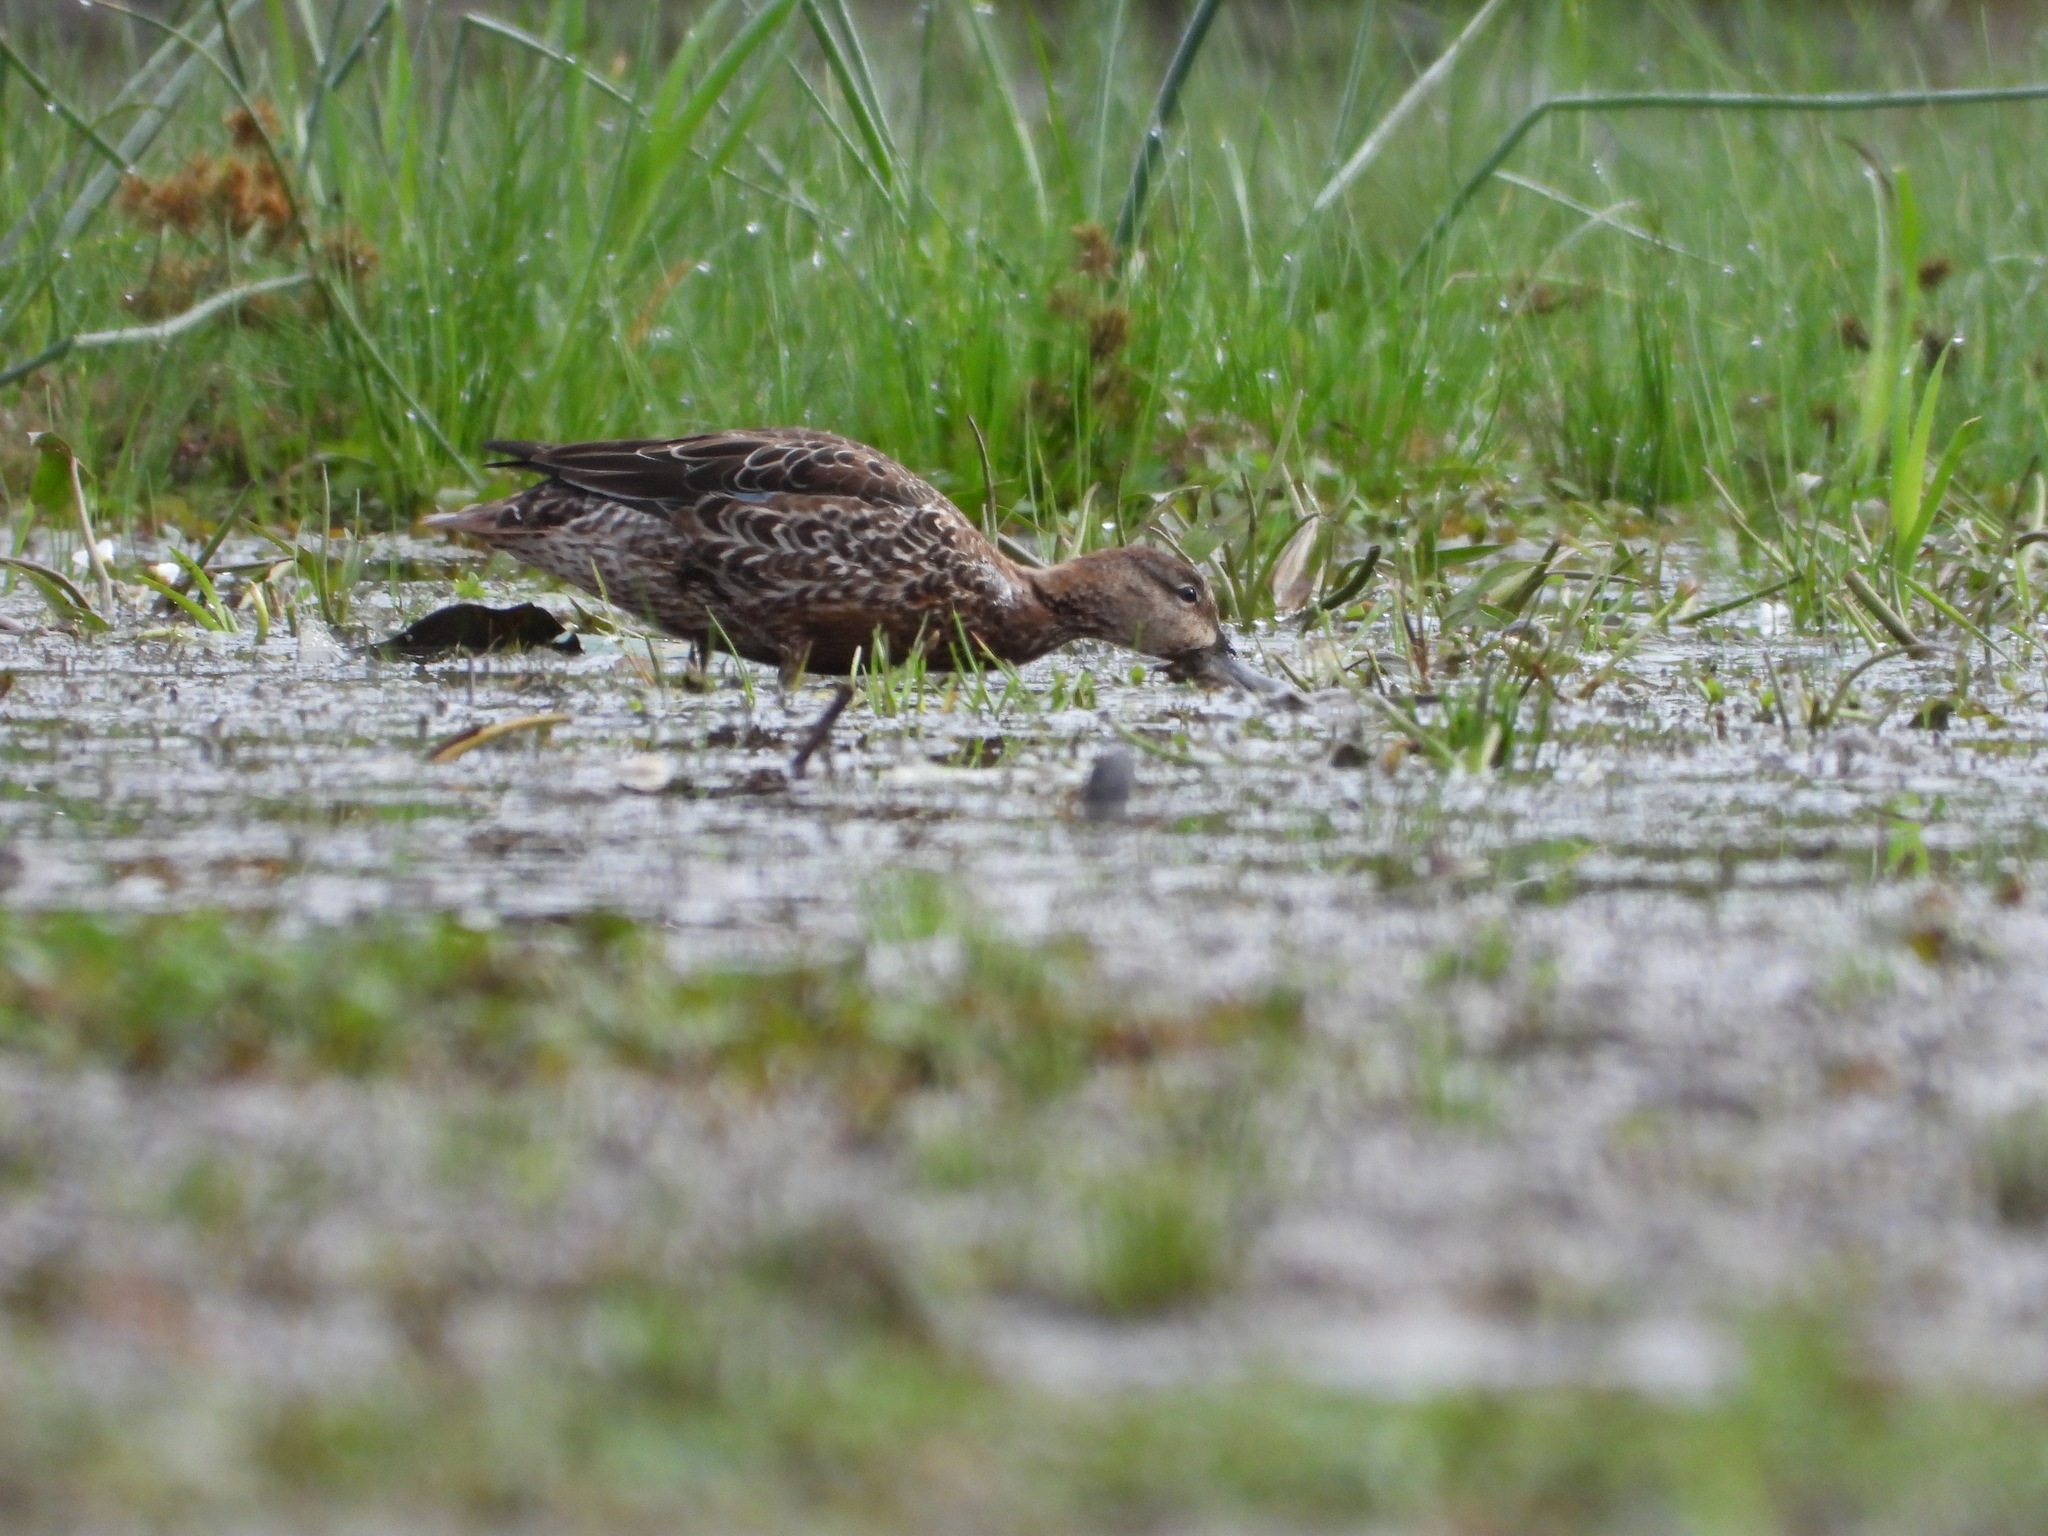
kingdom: Animalia
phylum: Chordata
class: Aves
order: Anseriformes
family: Anatidae
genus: Anas
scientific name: Anas platyrhynchos
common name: Mallard
